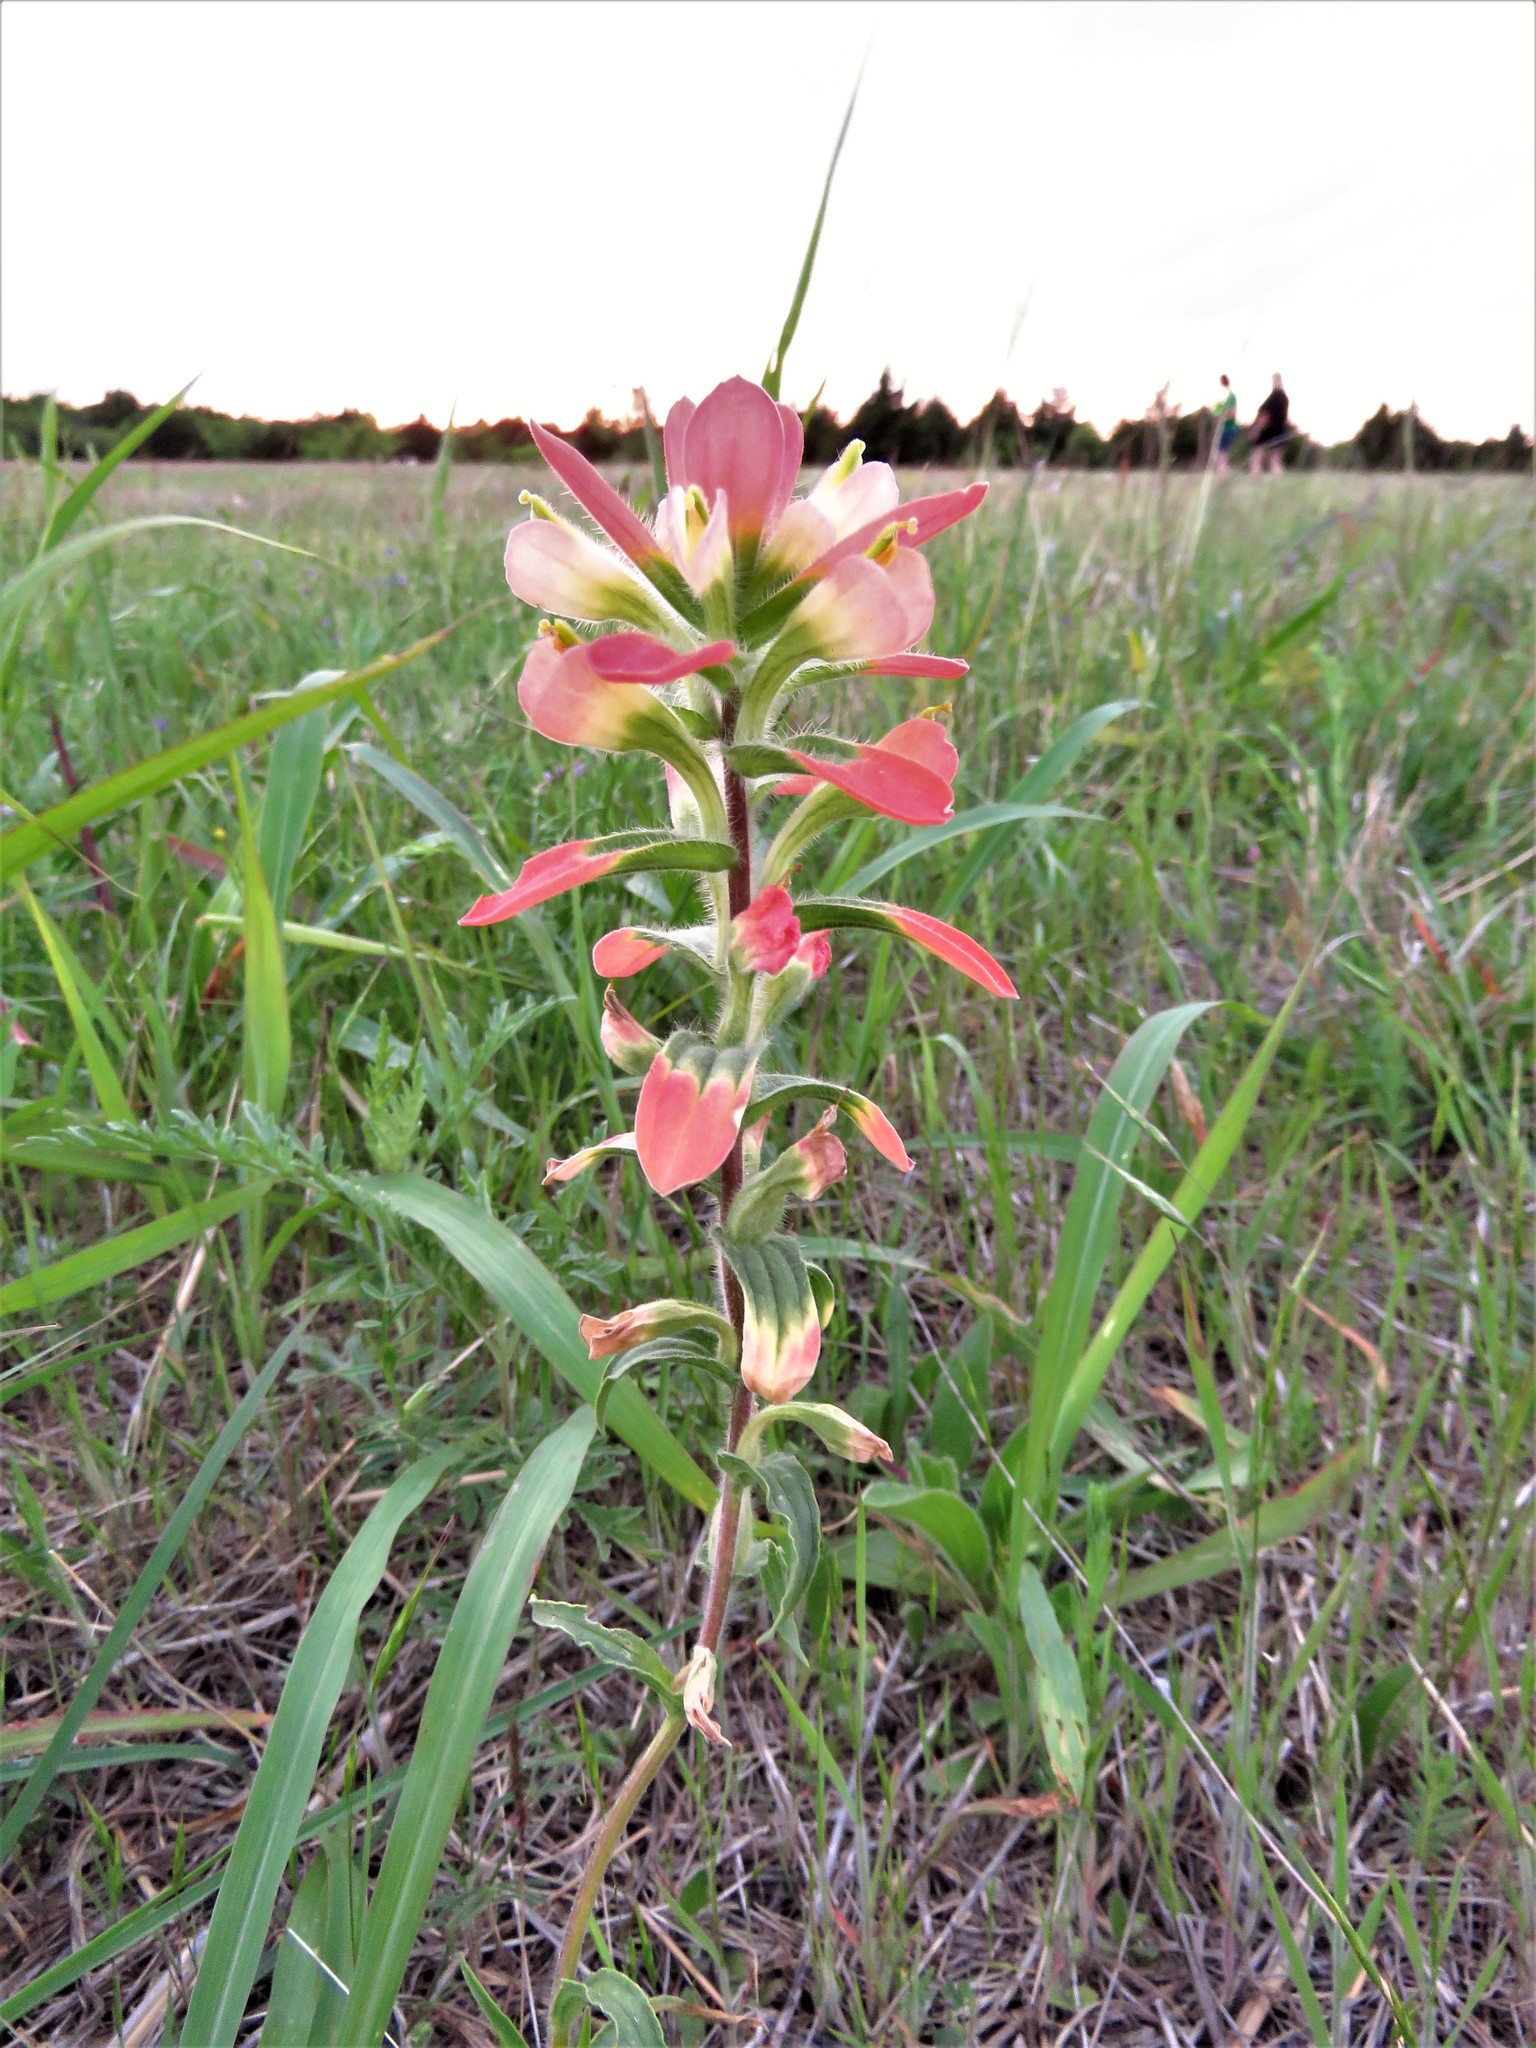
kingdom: Plantae
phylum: Tracheophyta
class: Magnoliopsida
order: Lamiales
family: Orobanchaceae
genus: Castilleja
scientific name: Castilleja indivisa
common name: Texas paintbrush
